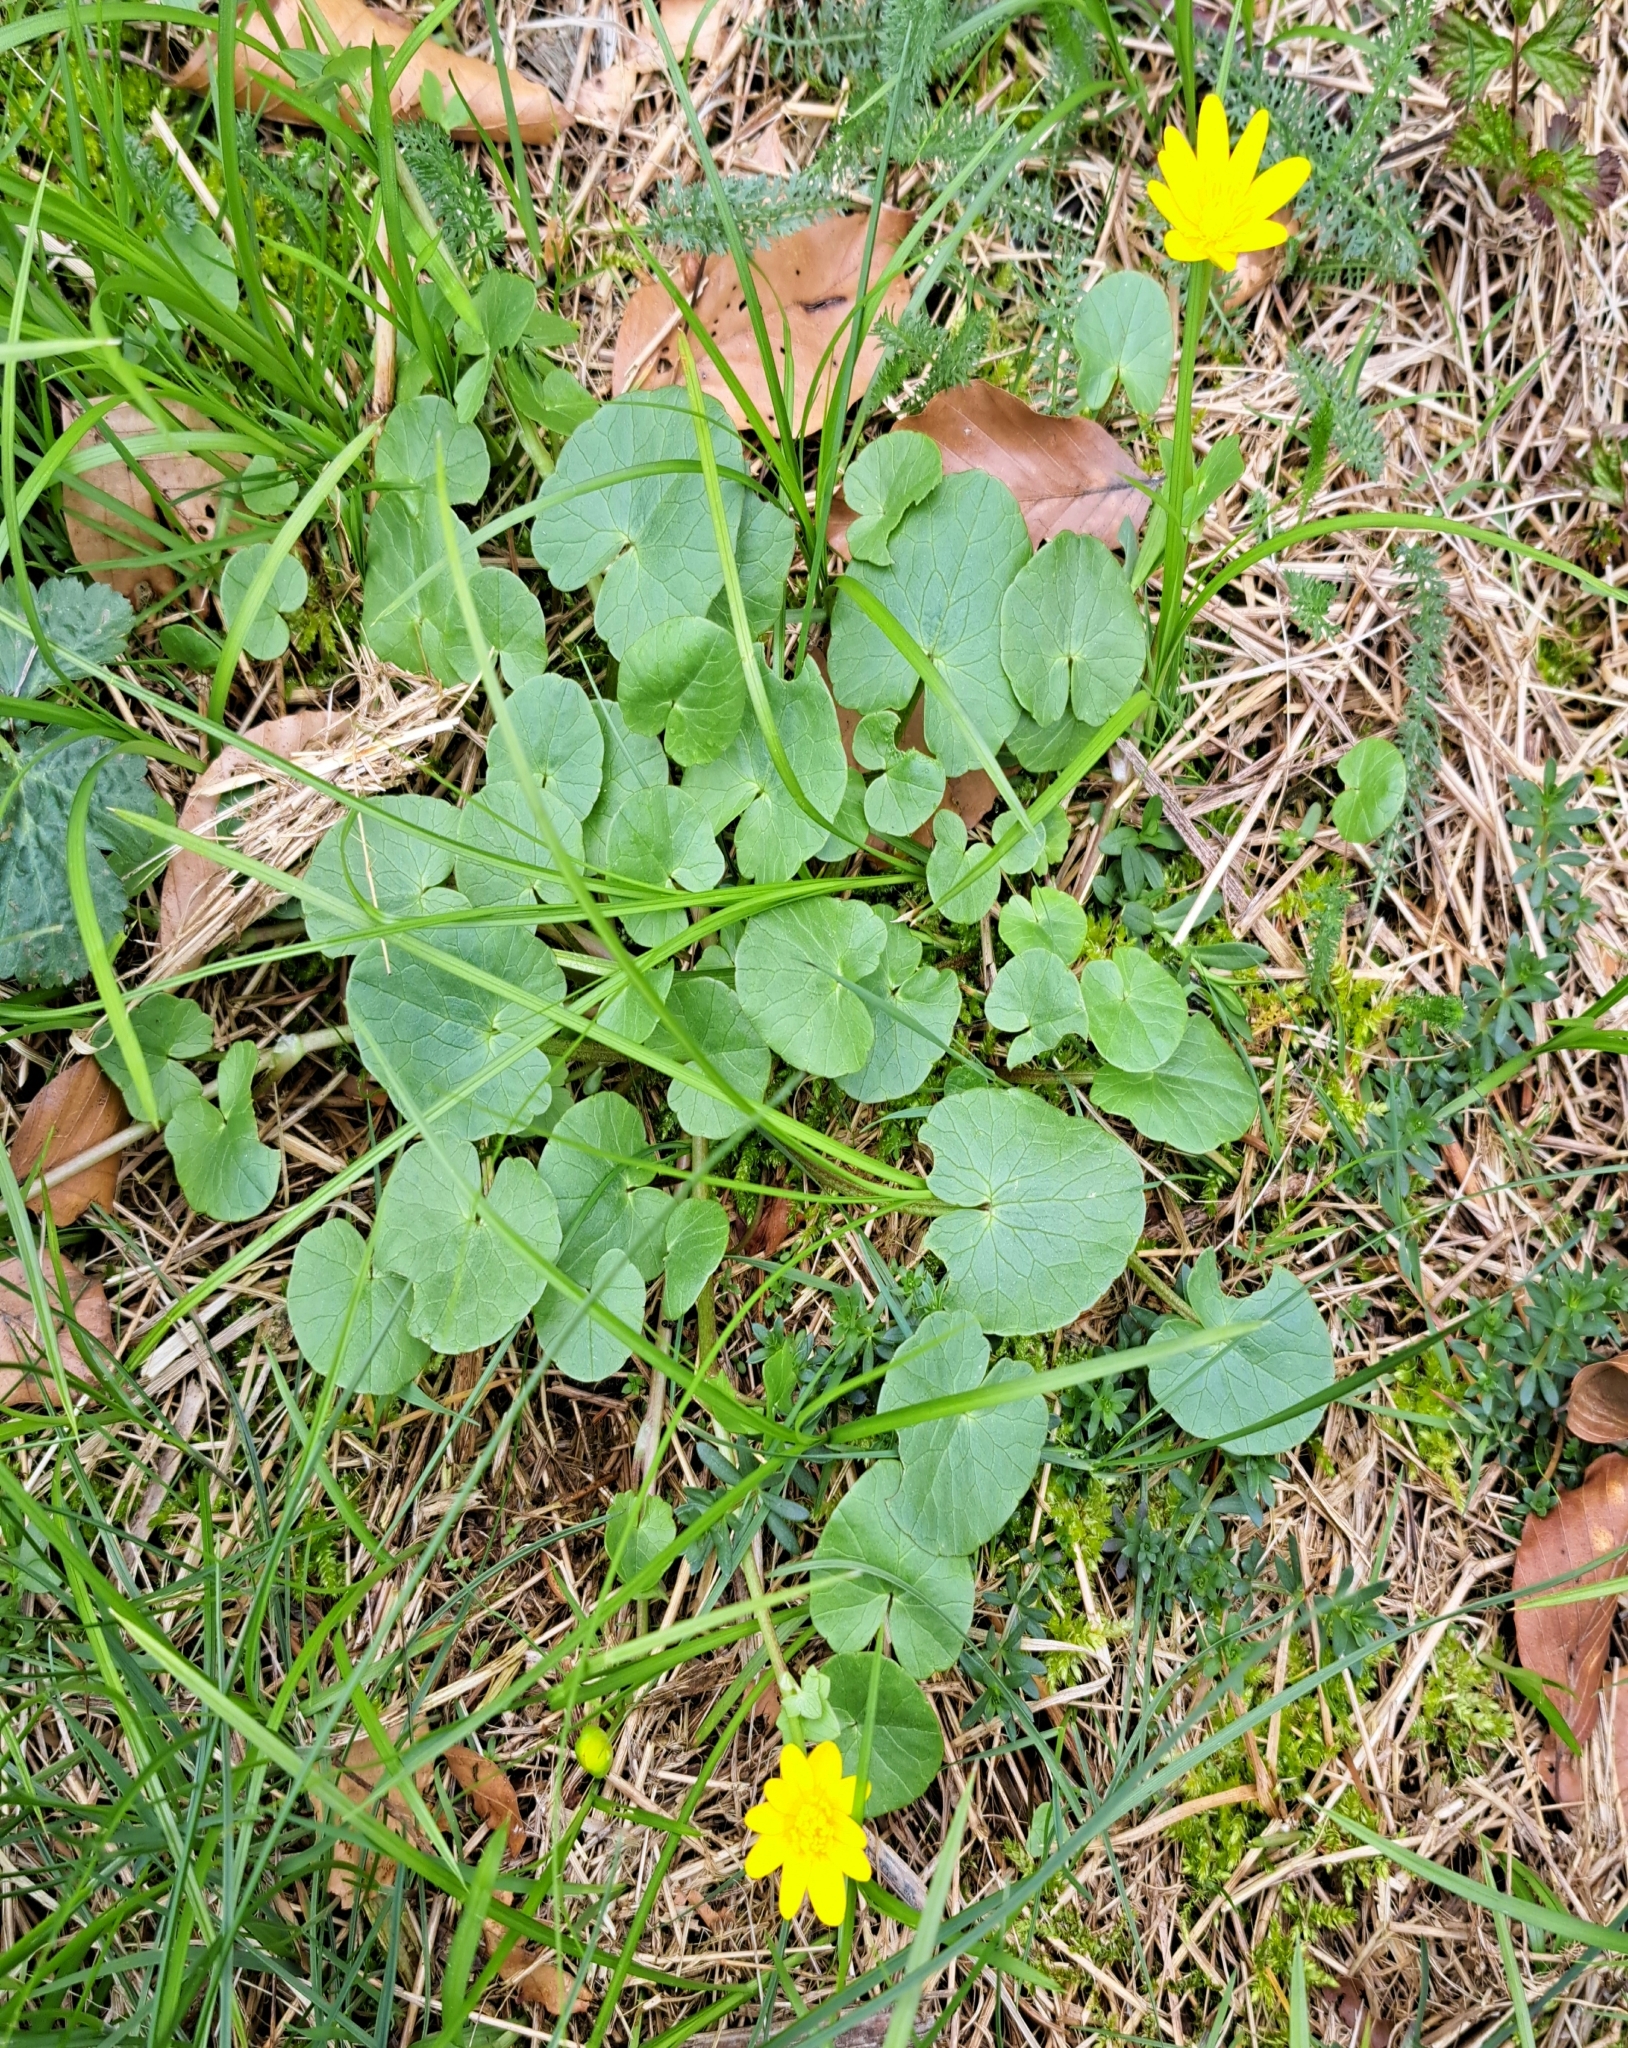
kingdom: Plantae
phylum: Tracheophyta
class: Magnoliopsida
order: Ranunculales
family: Ranunculaceae
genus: Ficaria
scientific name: Ficaria verna
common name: Lesser celandine
